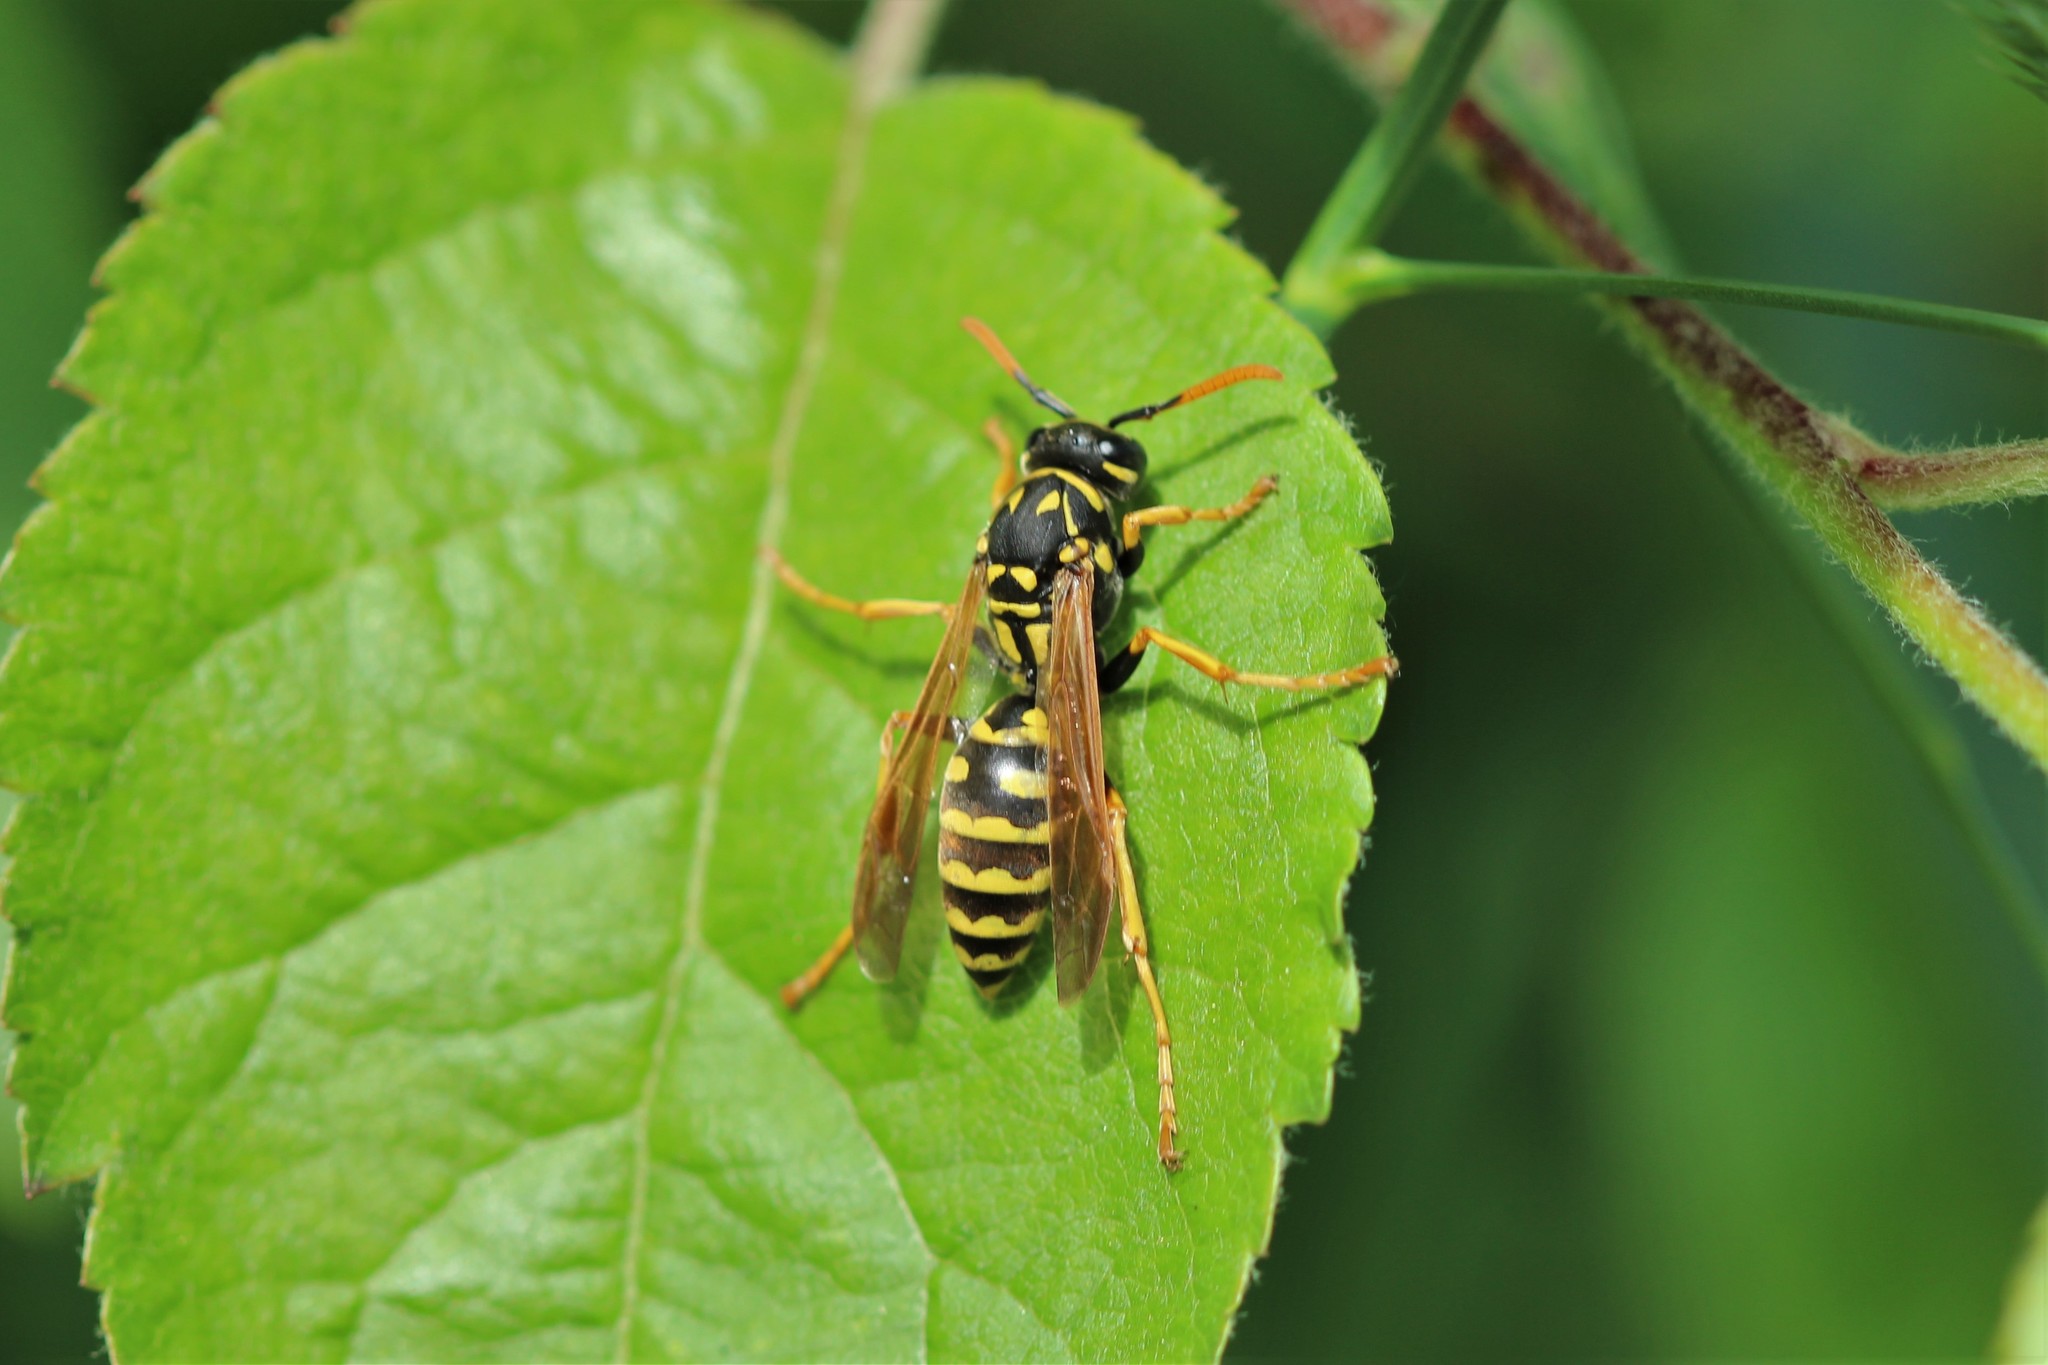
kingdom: Animalia
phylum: Arthropoda
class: Insecta
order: Hymenoptera
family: Eumenidae
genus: Polistes
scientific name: Polistes dominula
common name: Paper wasp
